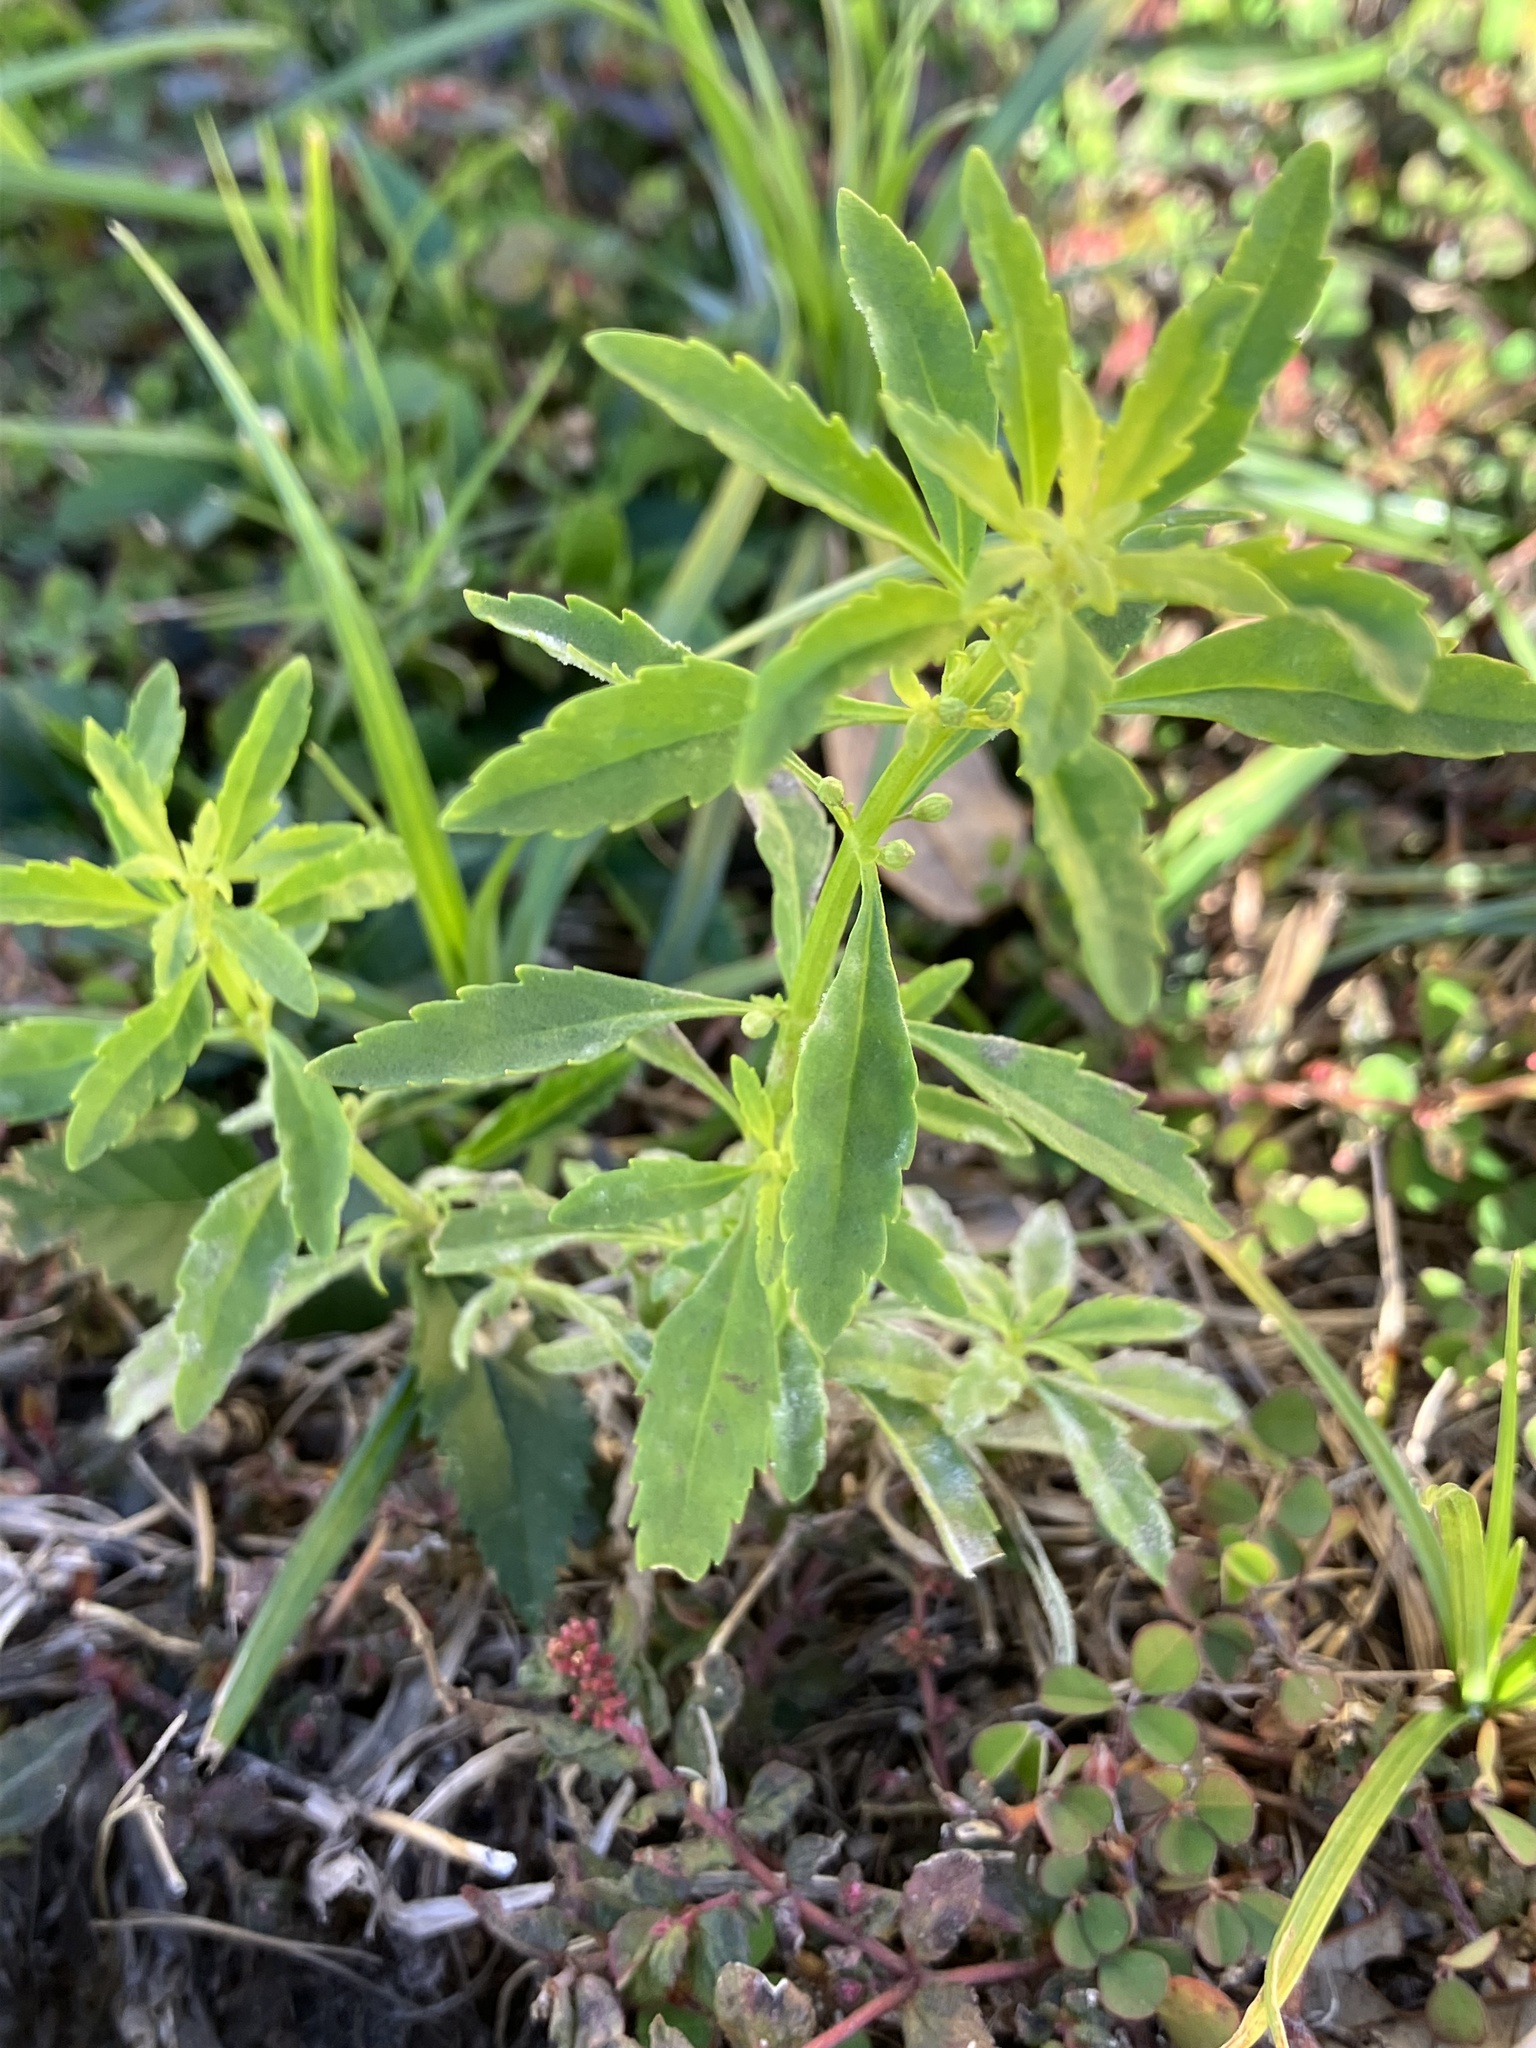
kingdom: Plantae
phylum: Tracheophyta
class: Magnoliopsida
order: Lamiales
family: Plantaginaceae
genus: Scoparia
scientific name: Scoparia dulcis
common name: Scoparia-weed
